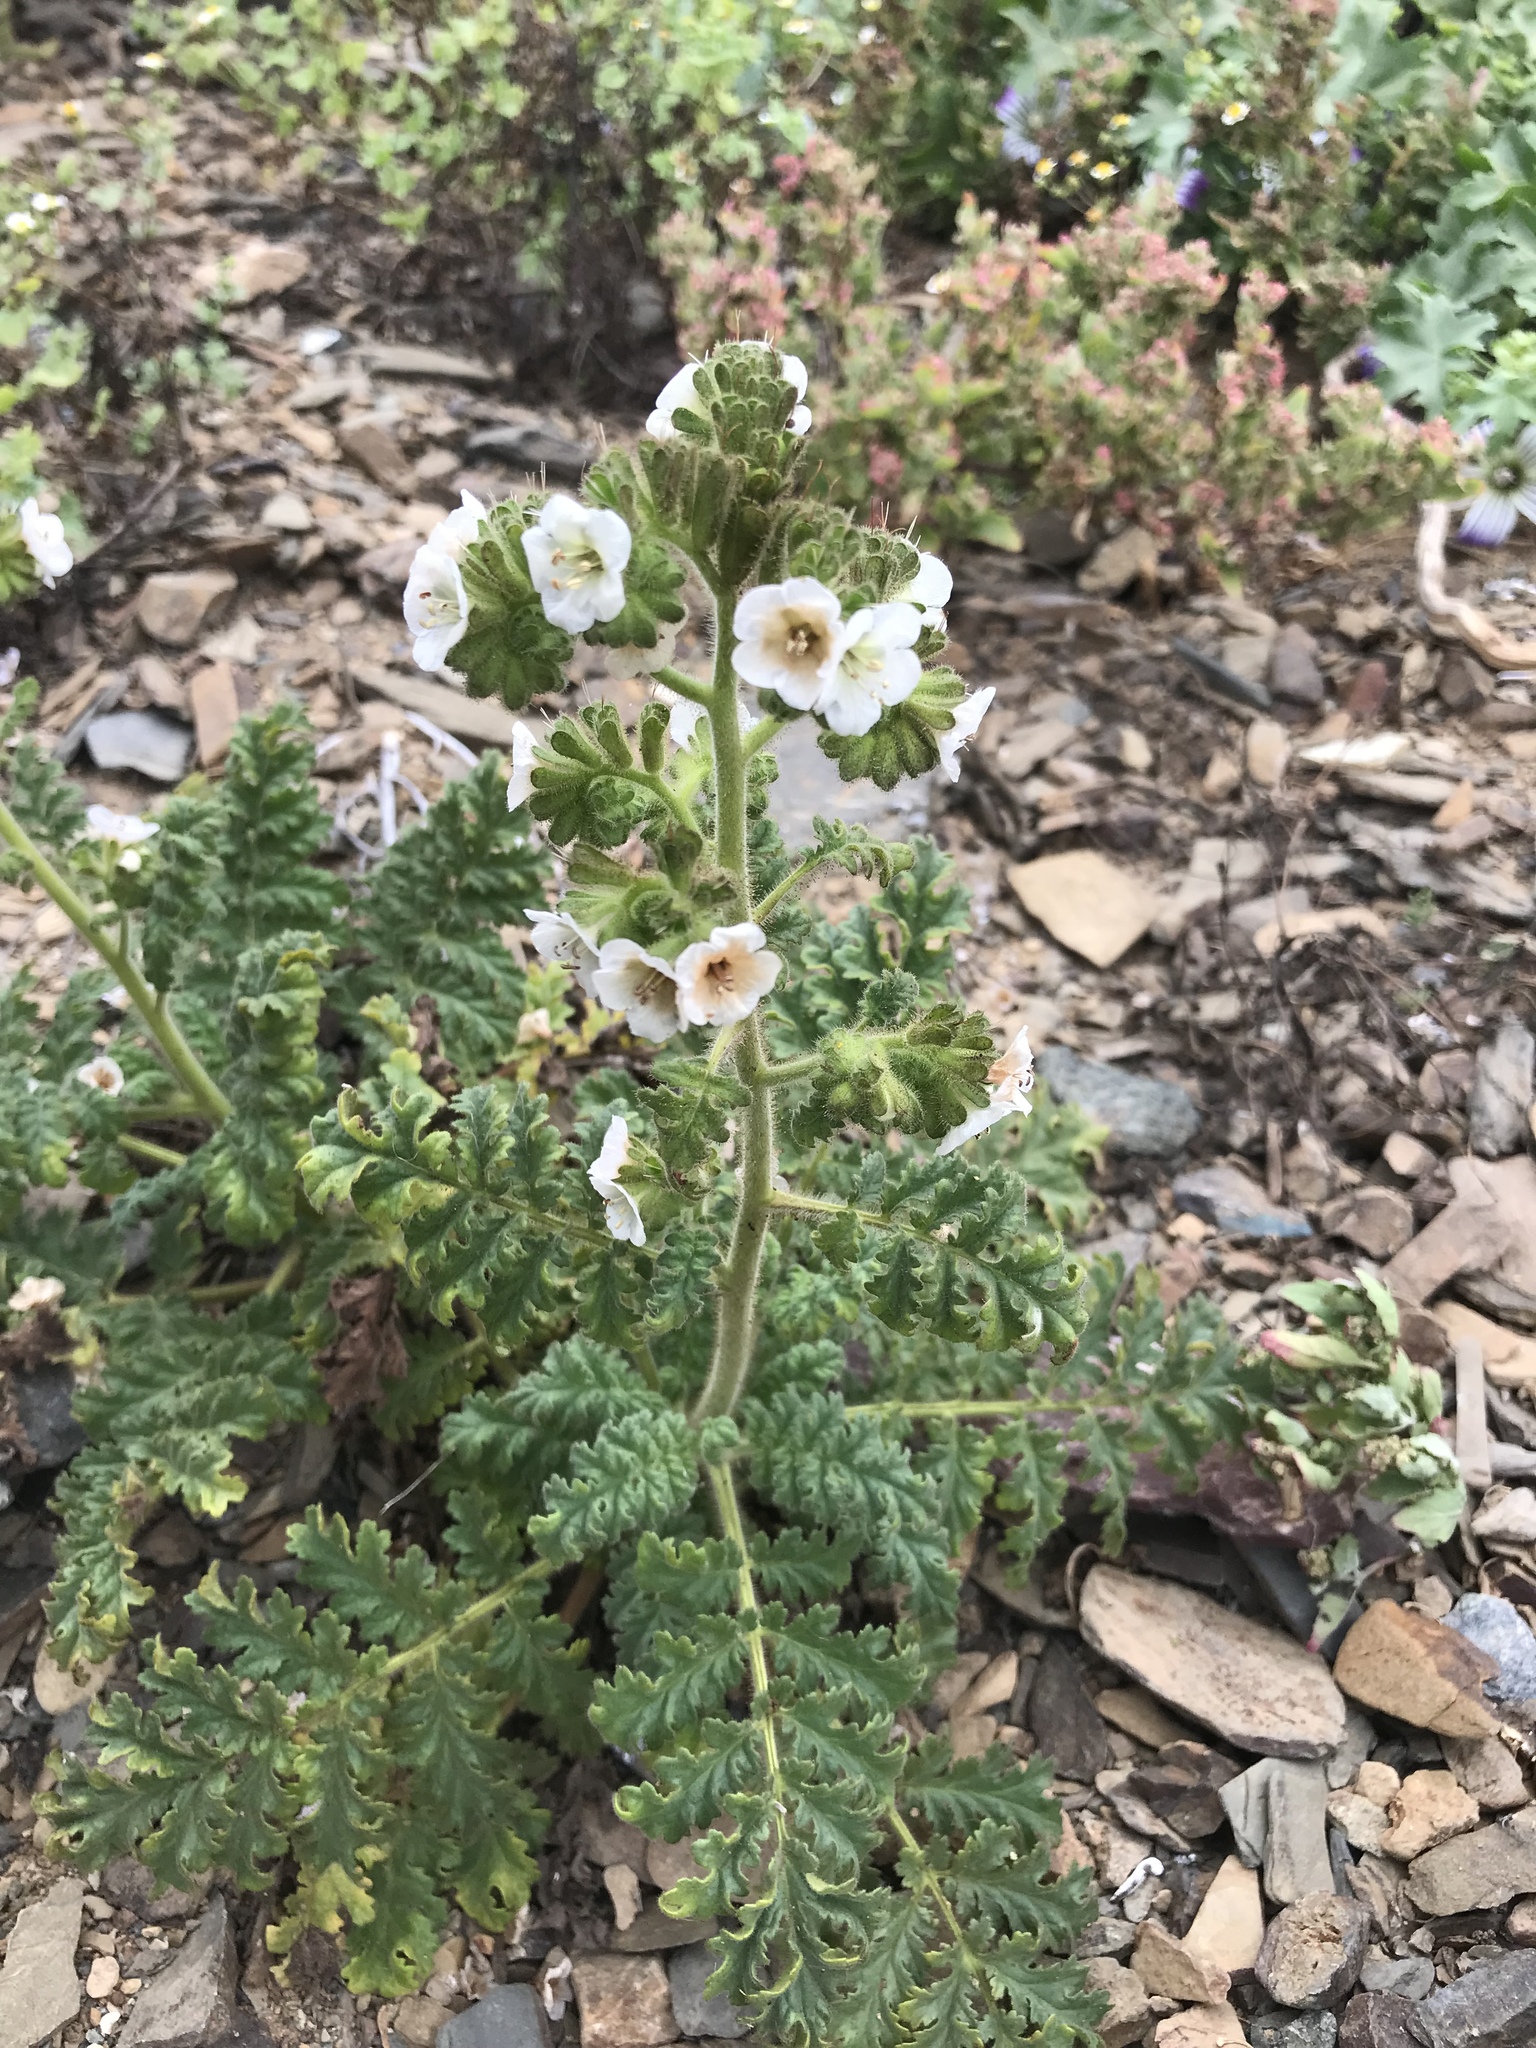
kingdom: Plantae
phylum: Tracheophyta
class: Magnoliopsida
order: Boraginales
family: Hydrophyllaceae
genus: Phacelia
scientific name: Phacelia ixodes
